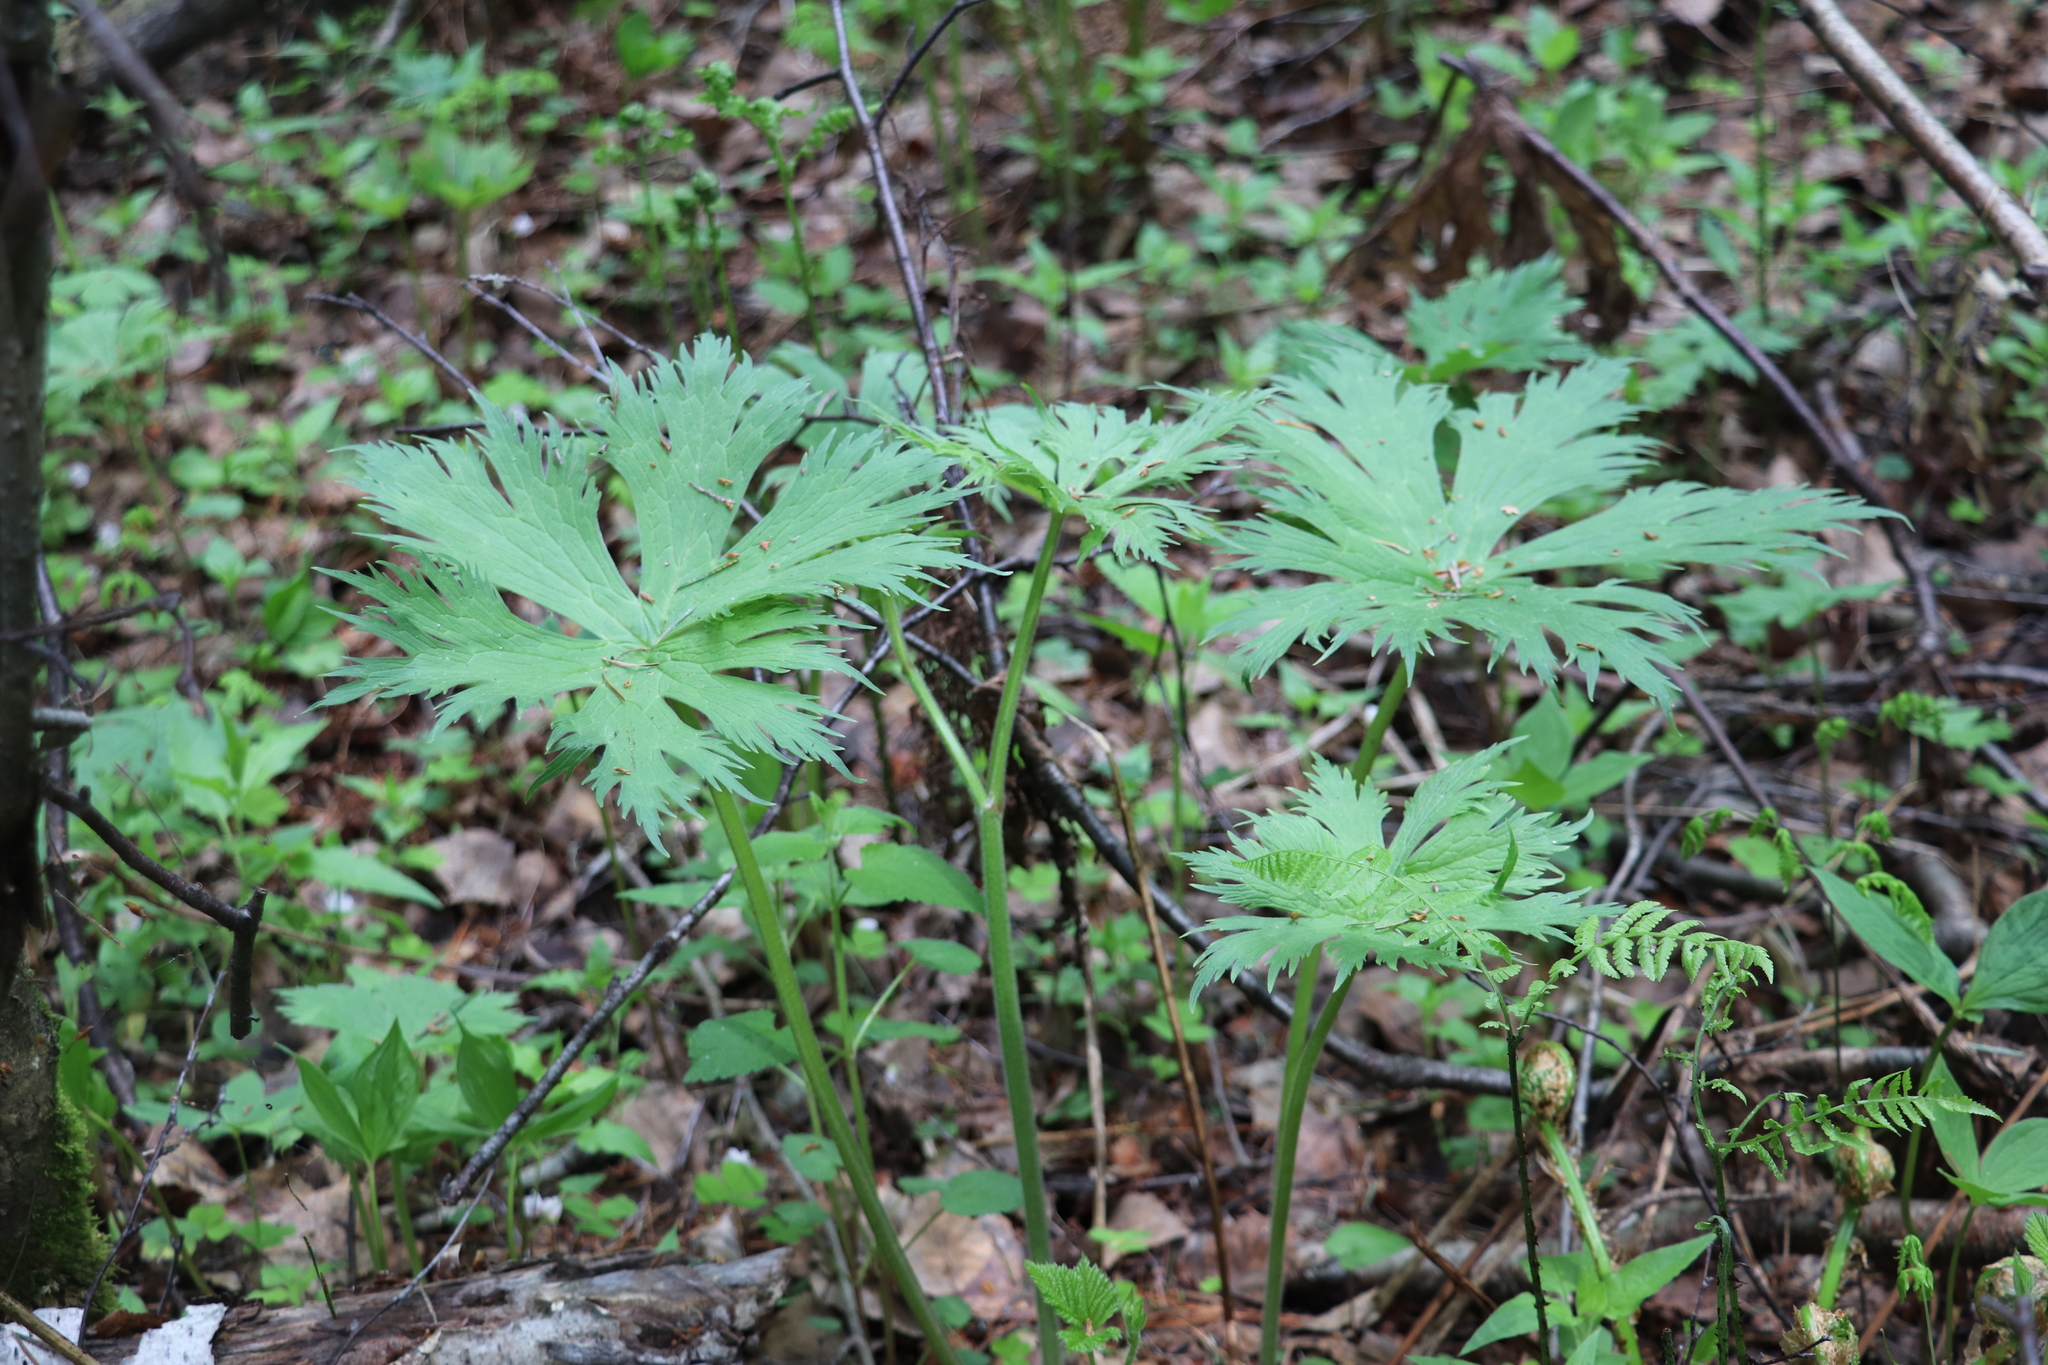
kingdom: Plantae
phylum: Tracheophyta
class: Magnoliopsida
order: Ranunculales
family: Ranunculaceae
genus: Aconitum
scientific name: Aconitum septentrionale
